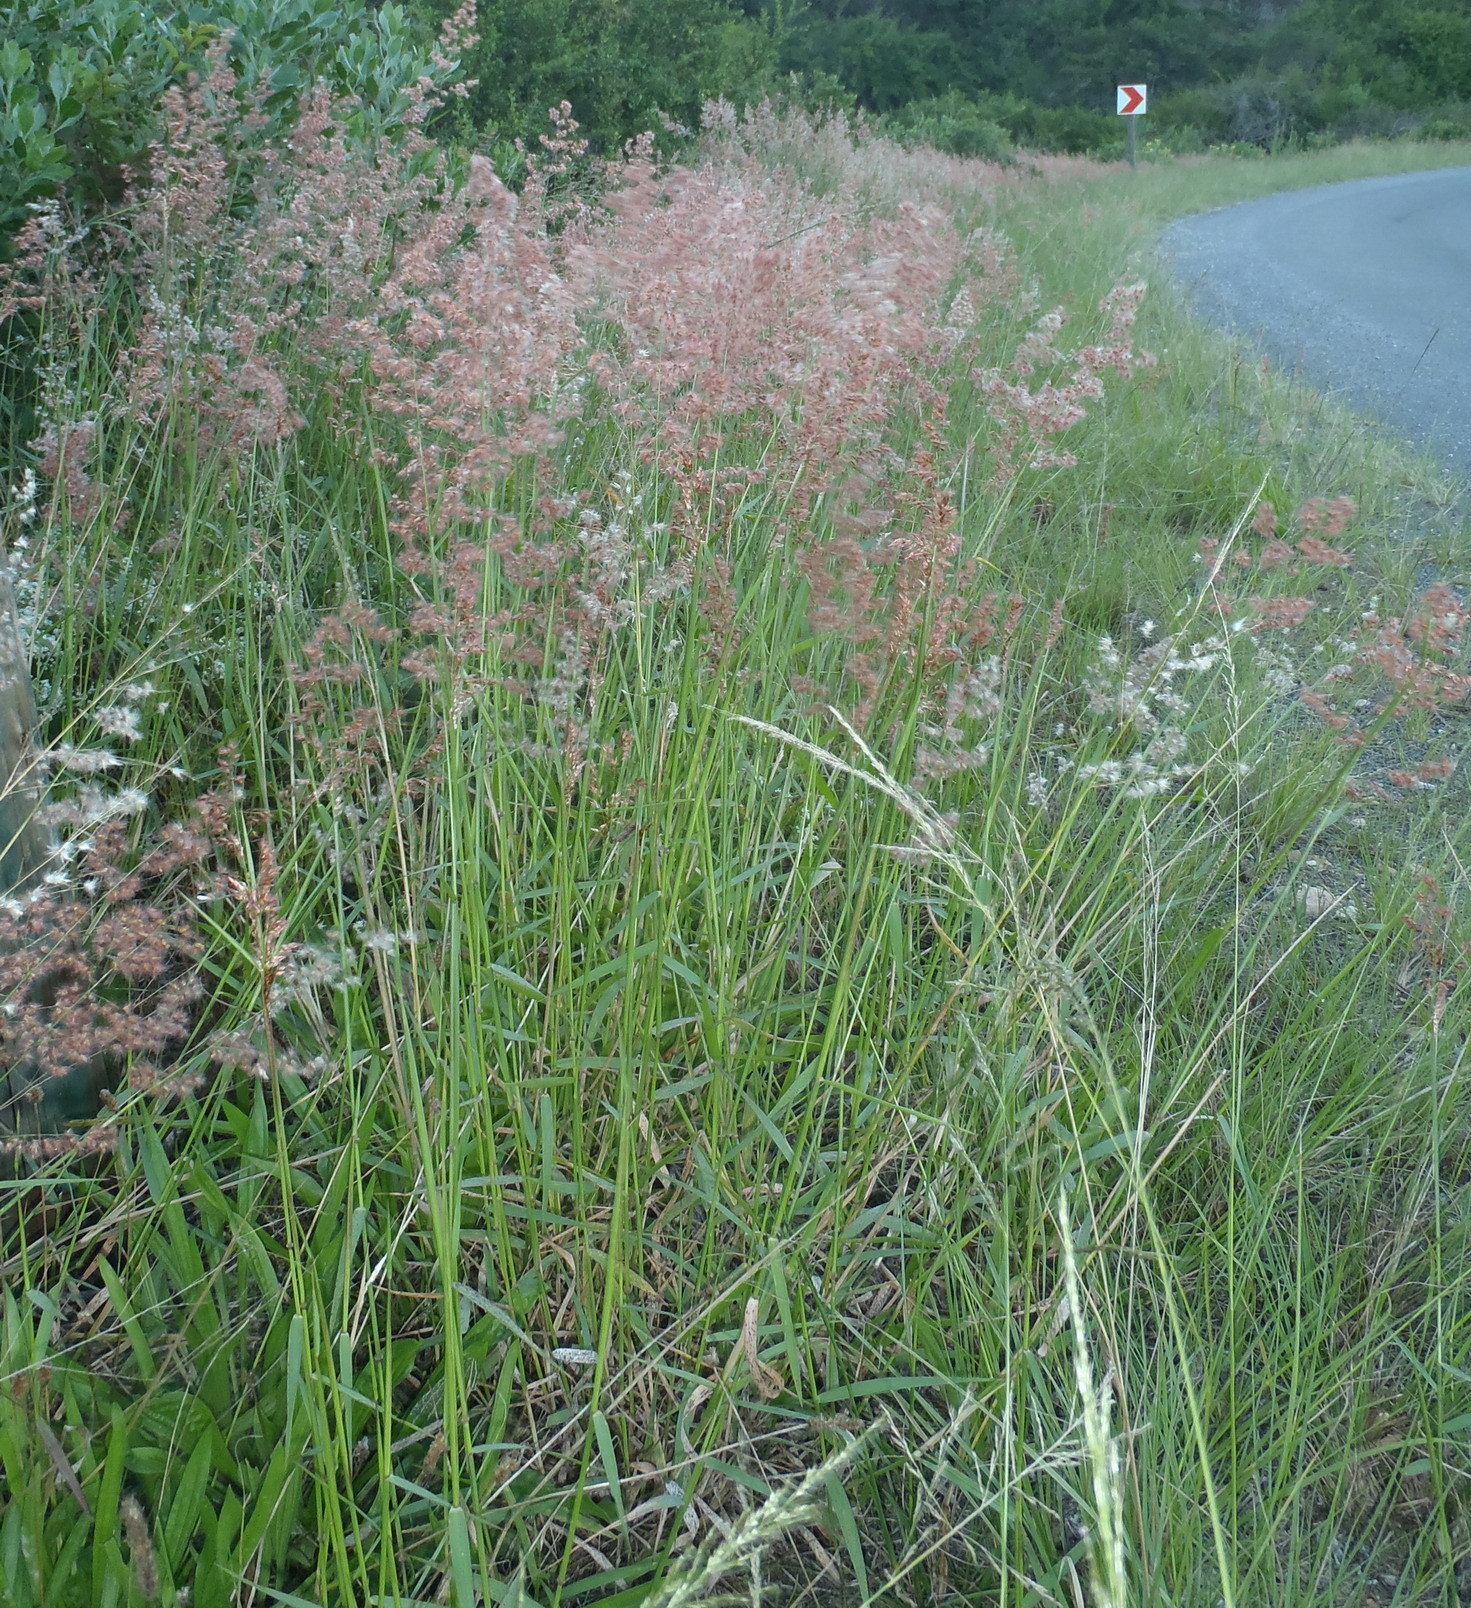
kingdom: Plantae
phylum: Tracheophyta
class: Liliopsida
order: Poales
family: Poaceae
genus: Melinis
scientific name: Melinis repens
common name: Rose natal grass
